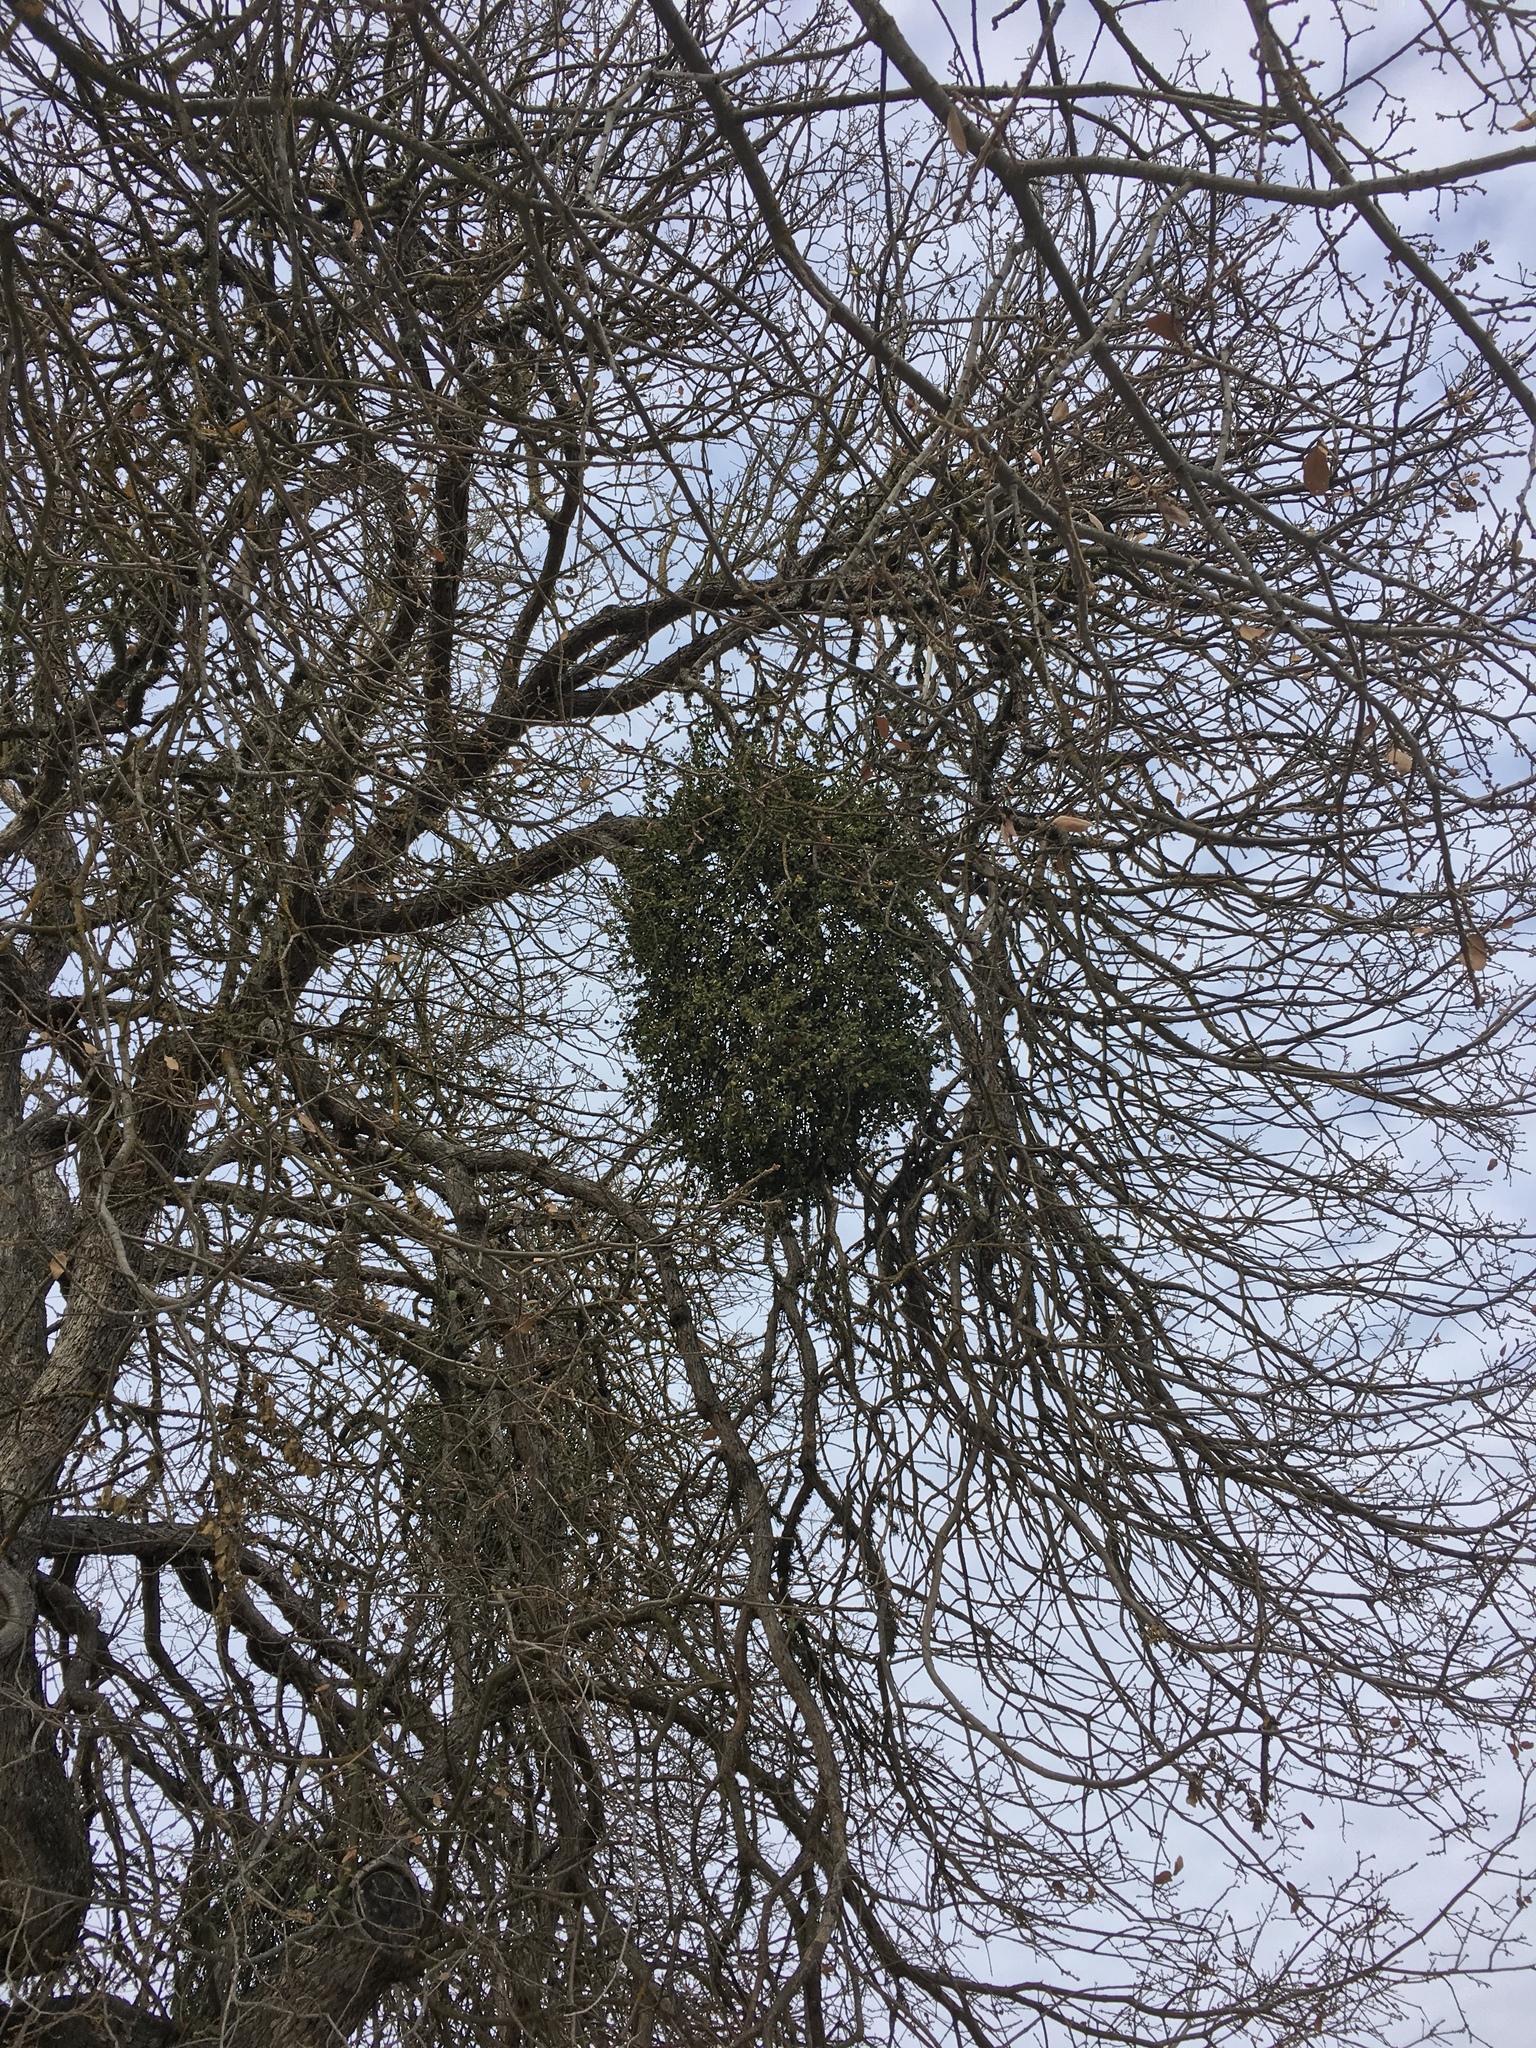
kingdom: Plantae
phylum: Tracheophyta
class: Magnoliopsida
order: Santalales
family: Viscaceae
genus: Phoradendron
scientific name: Phoradendron leucarpum
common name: Pacific mistletoe
